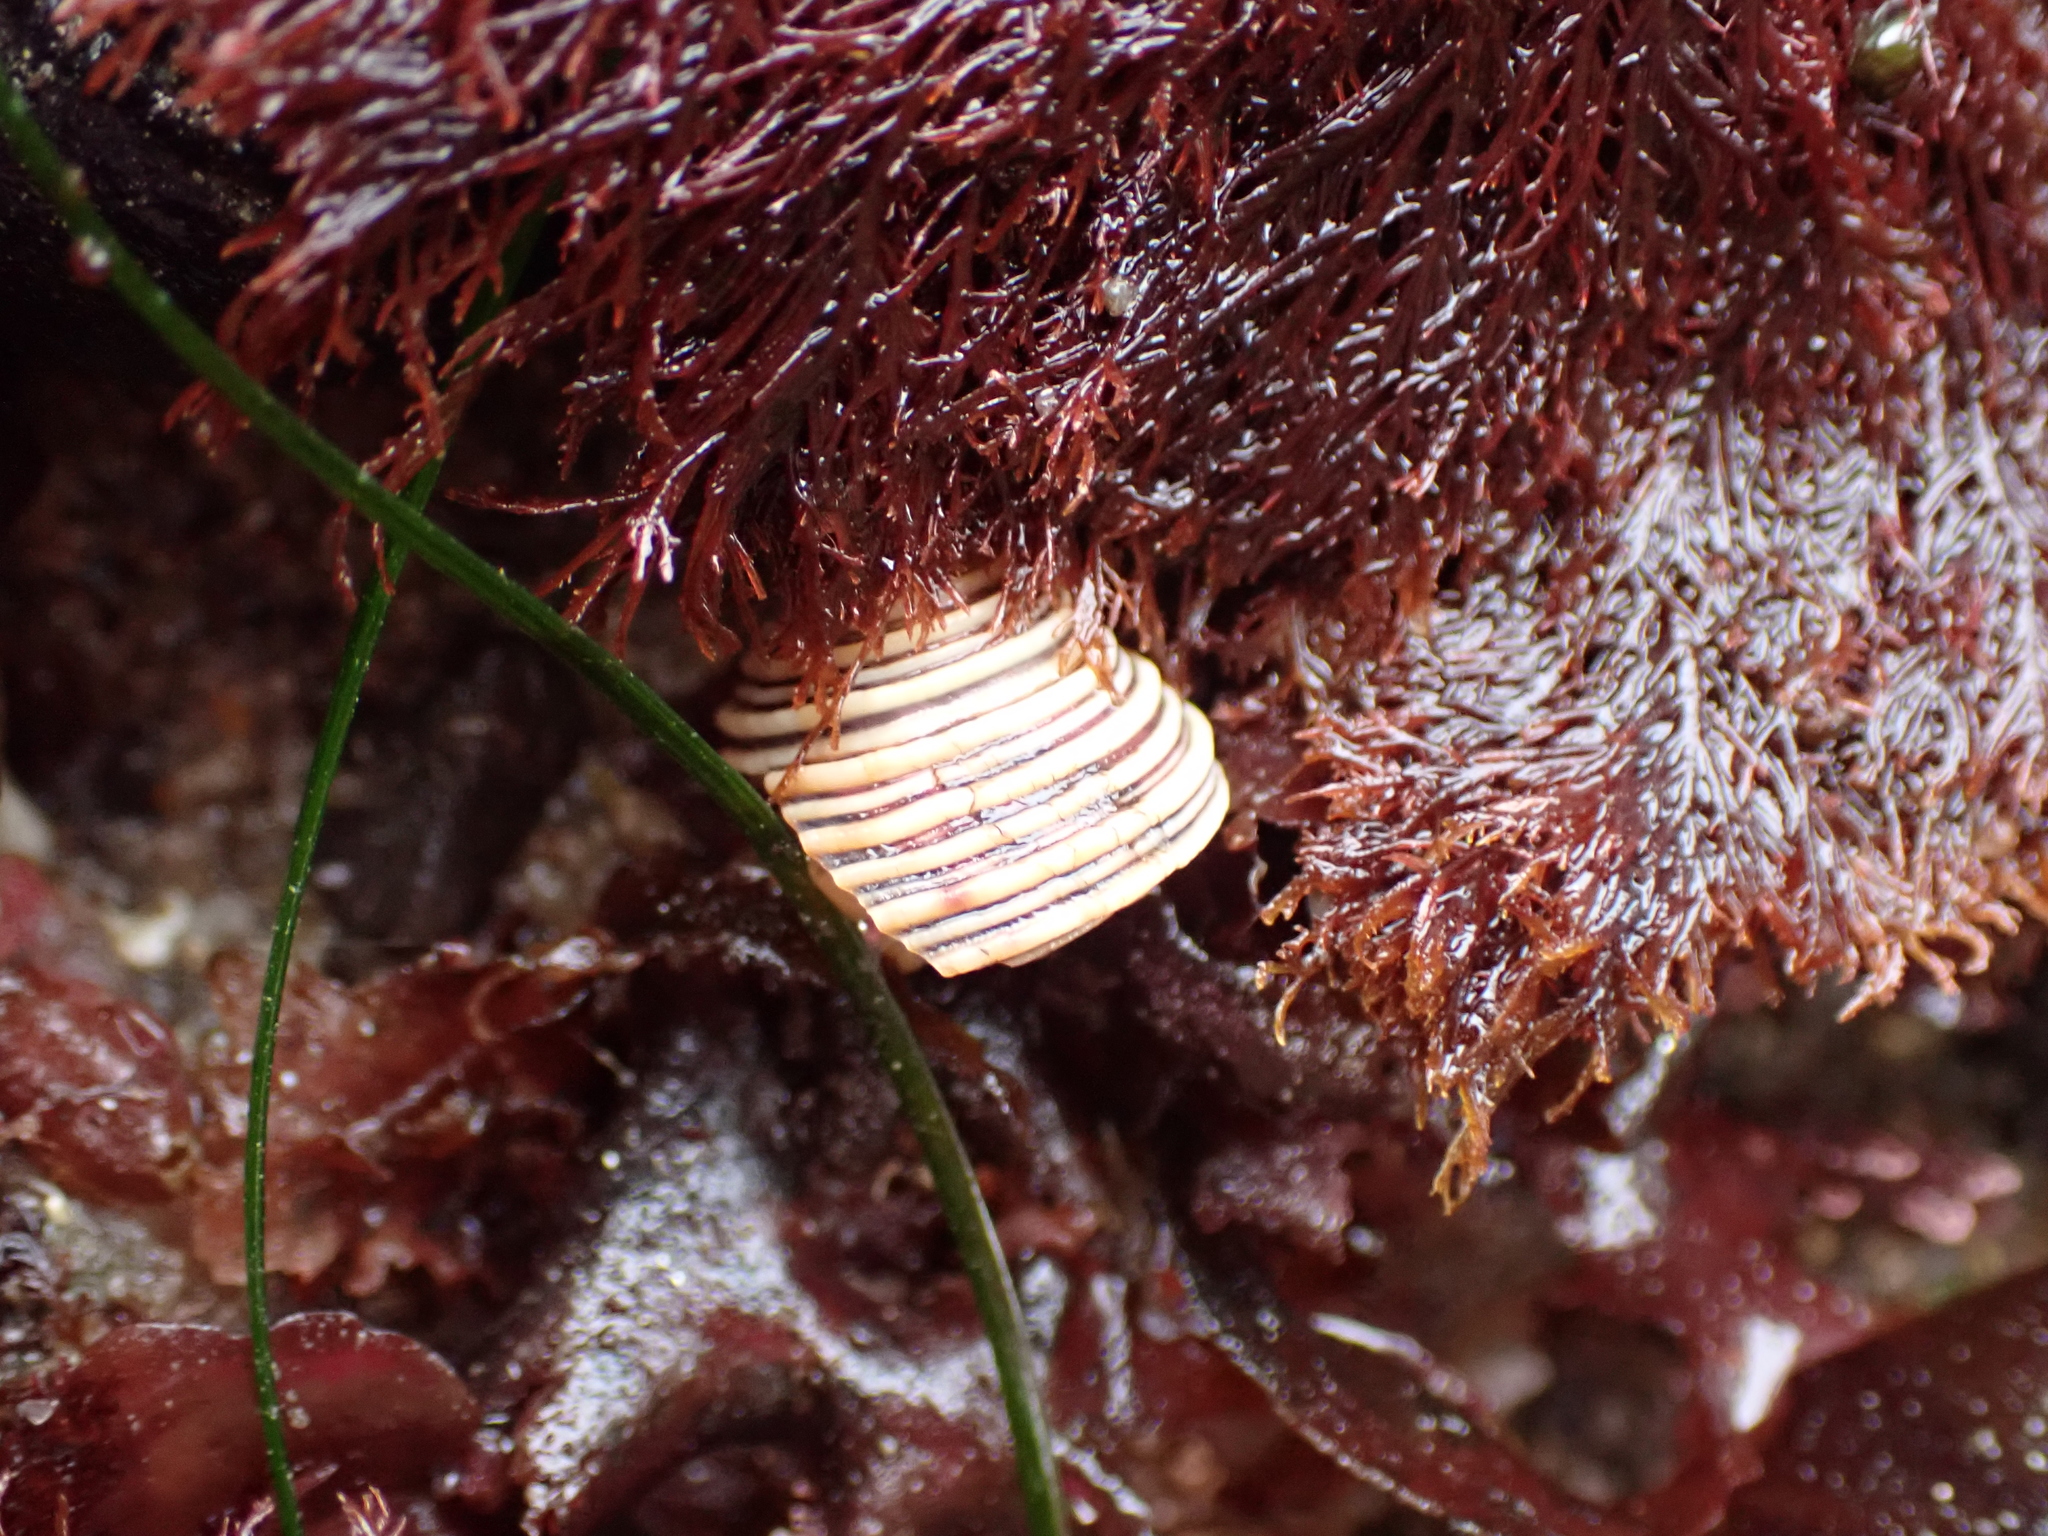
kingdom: Animalia
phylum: Mollusca
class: Gastropoda
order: Trochida
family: Calliostomatidae
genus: Calliostoma
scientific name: Calliostoma canaliculatum
